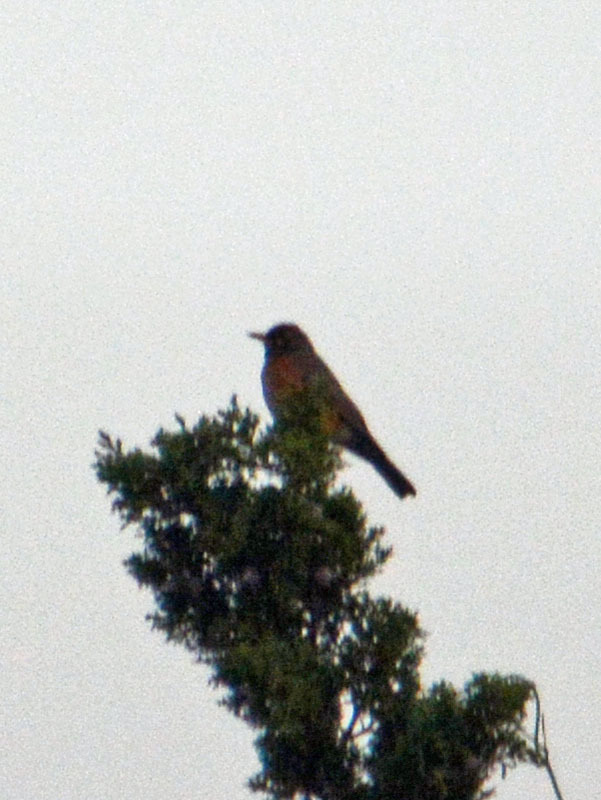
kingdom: Animalia
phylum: Chordata
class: Aves
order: Passeriformes
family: Turdidae
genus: Turdus
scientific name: Turdus migratorius
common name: American robin
